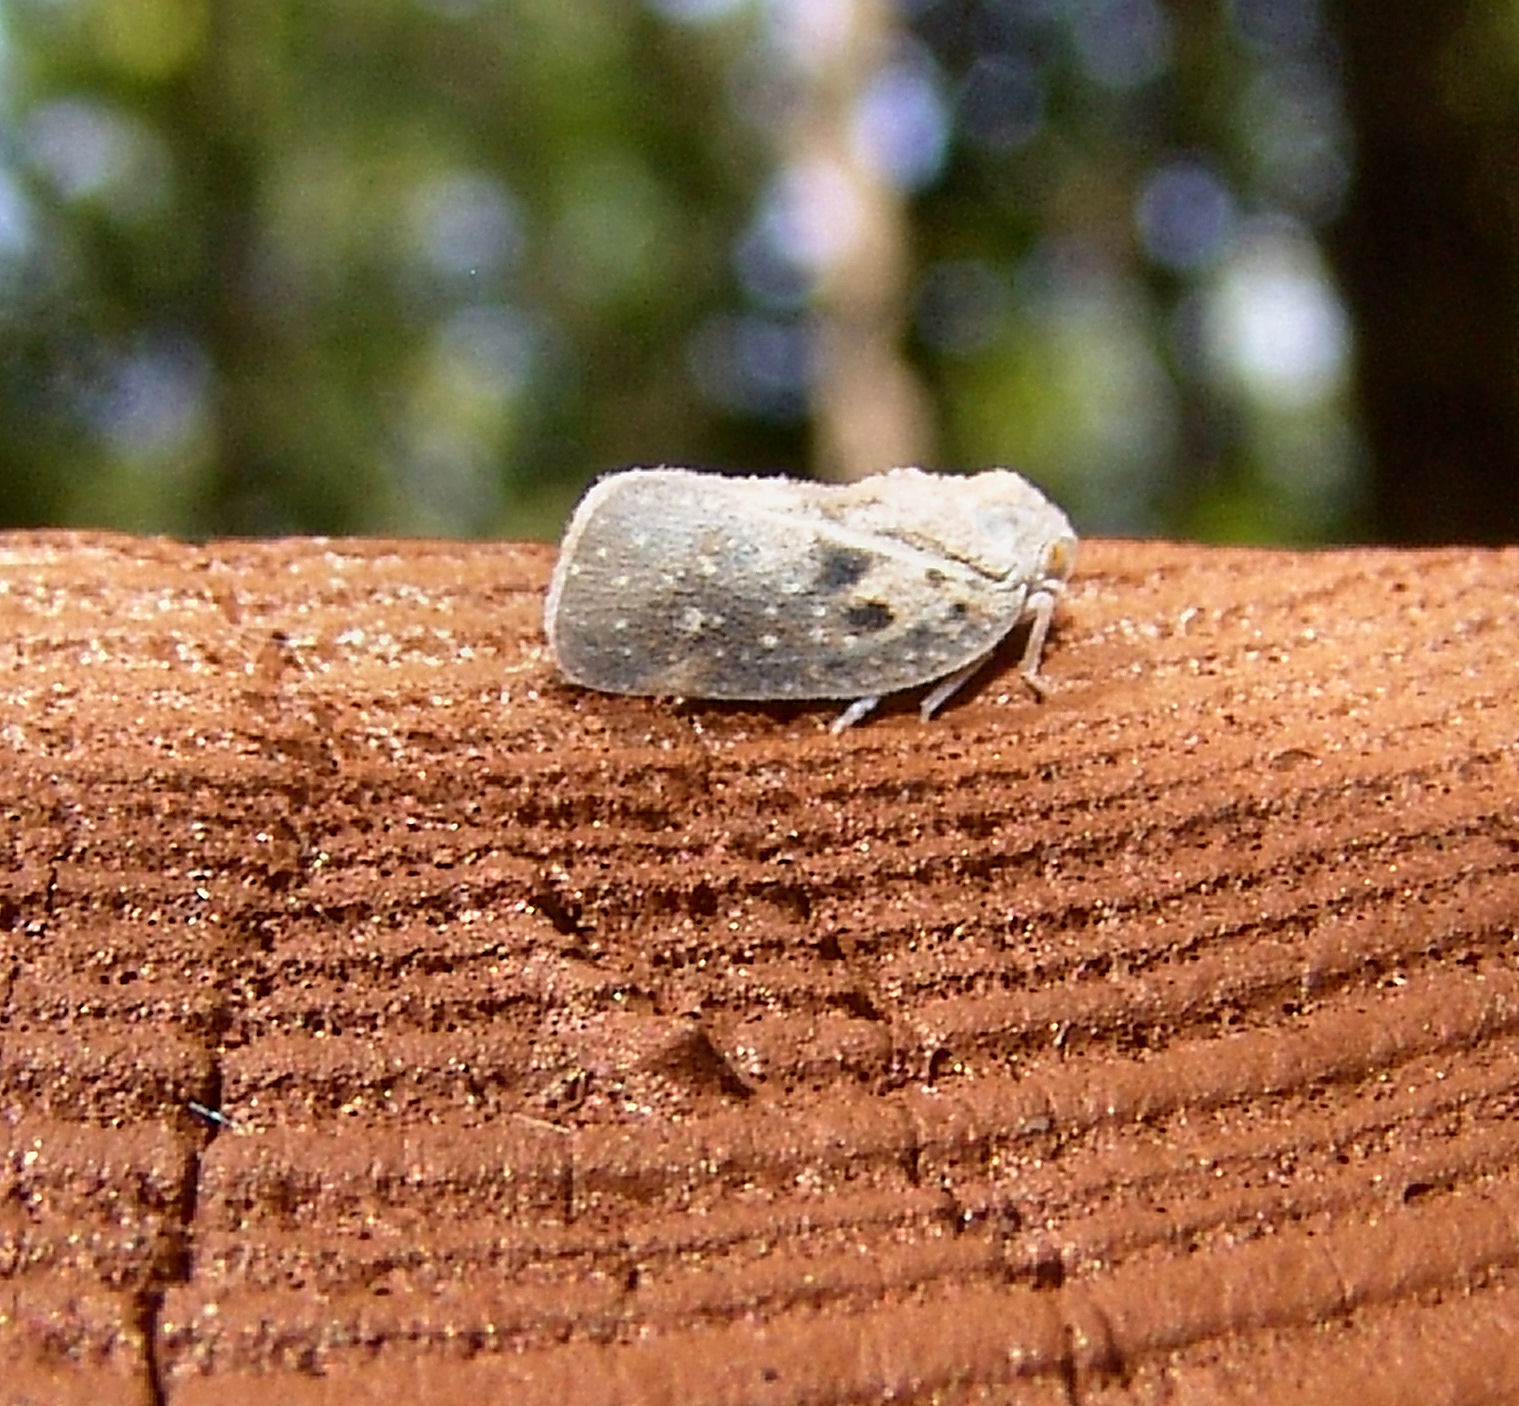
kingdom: Animalia
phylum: Arthropoda
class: Insecta
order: Hemiptera
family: Flatidae
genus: Metcalfa
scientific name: Metcalfa pruinosa
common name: Citrus flatid planthopper
